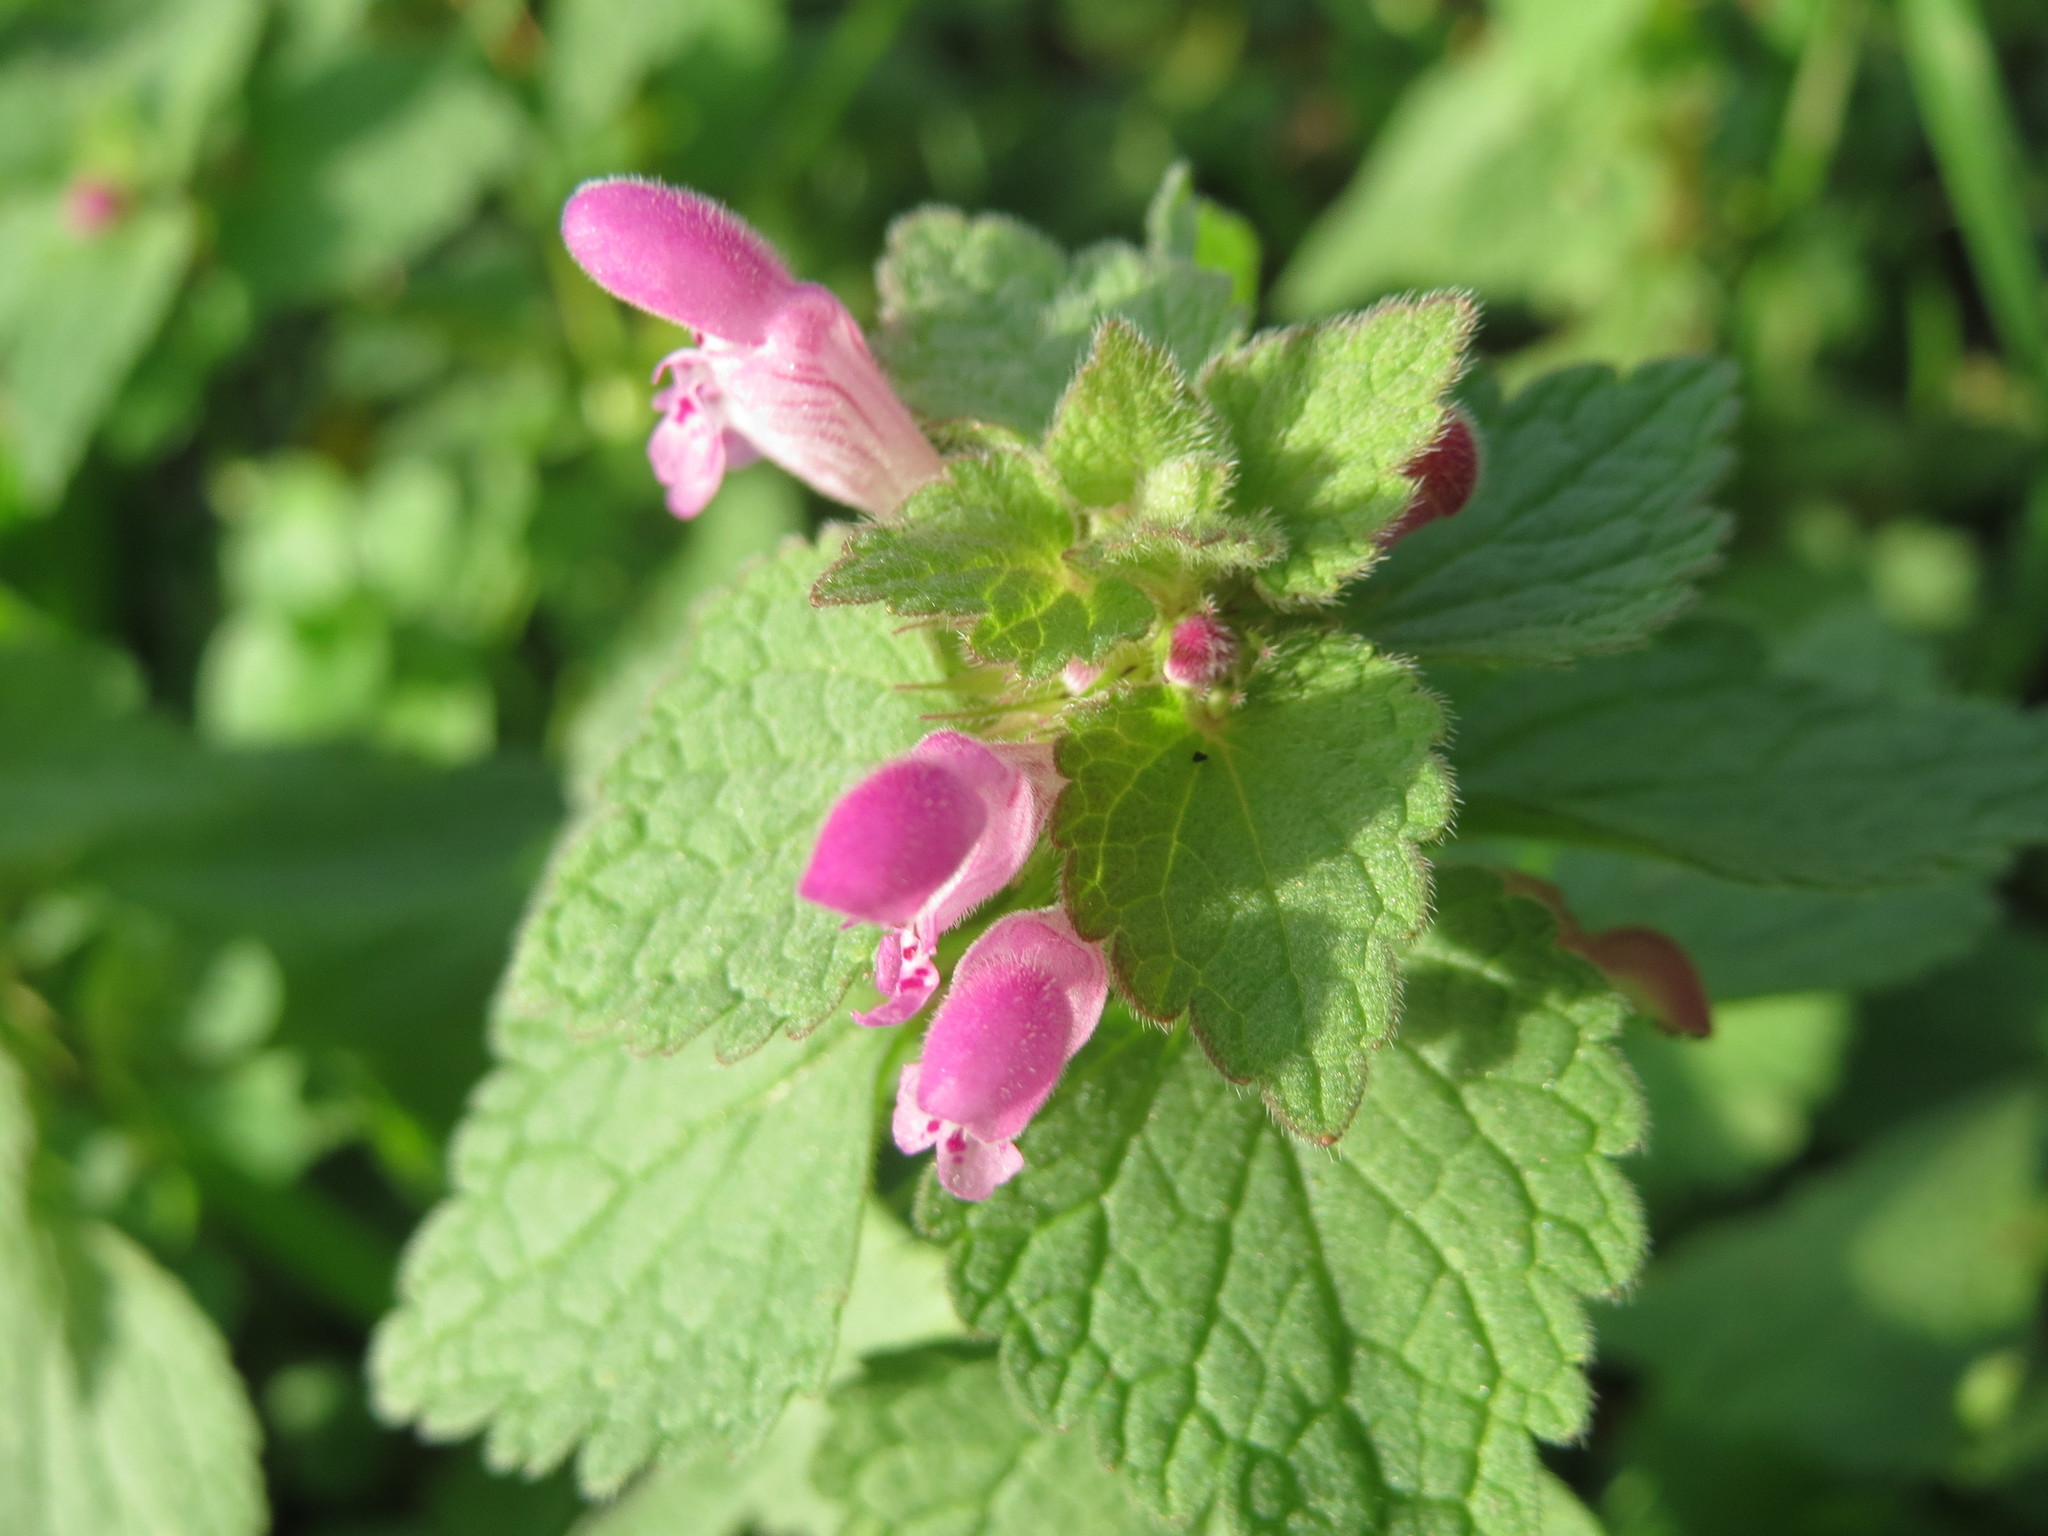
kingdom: Plantae
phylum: Tracheophyta
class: Magnoliopsida
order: Lamiales
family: Lamiaceae
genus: Lamium
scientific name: Lamium purpureum
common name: Red dead-nettle
